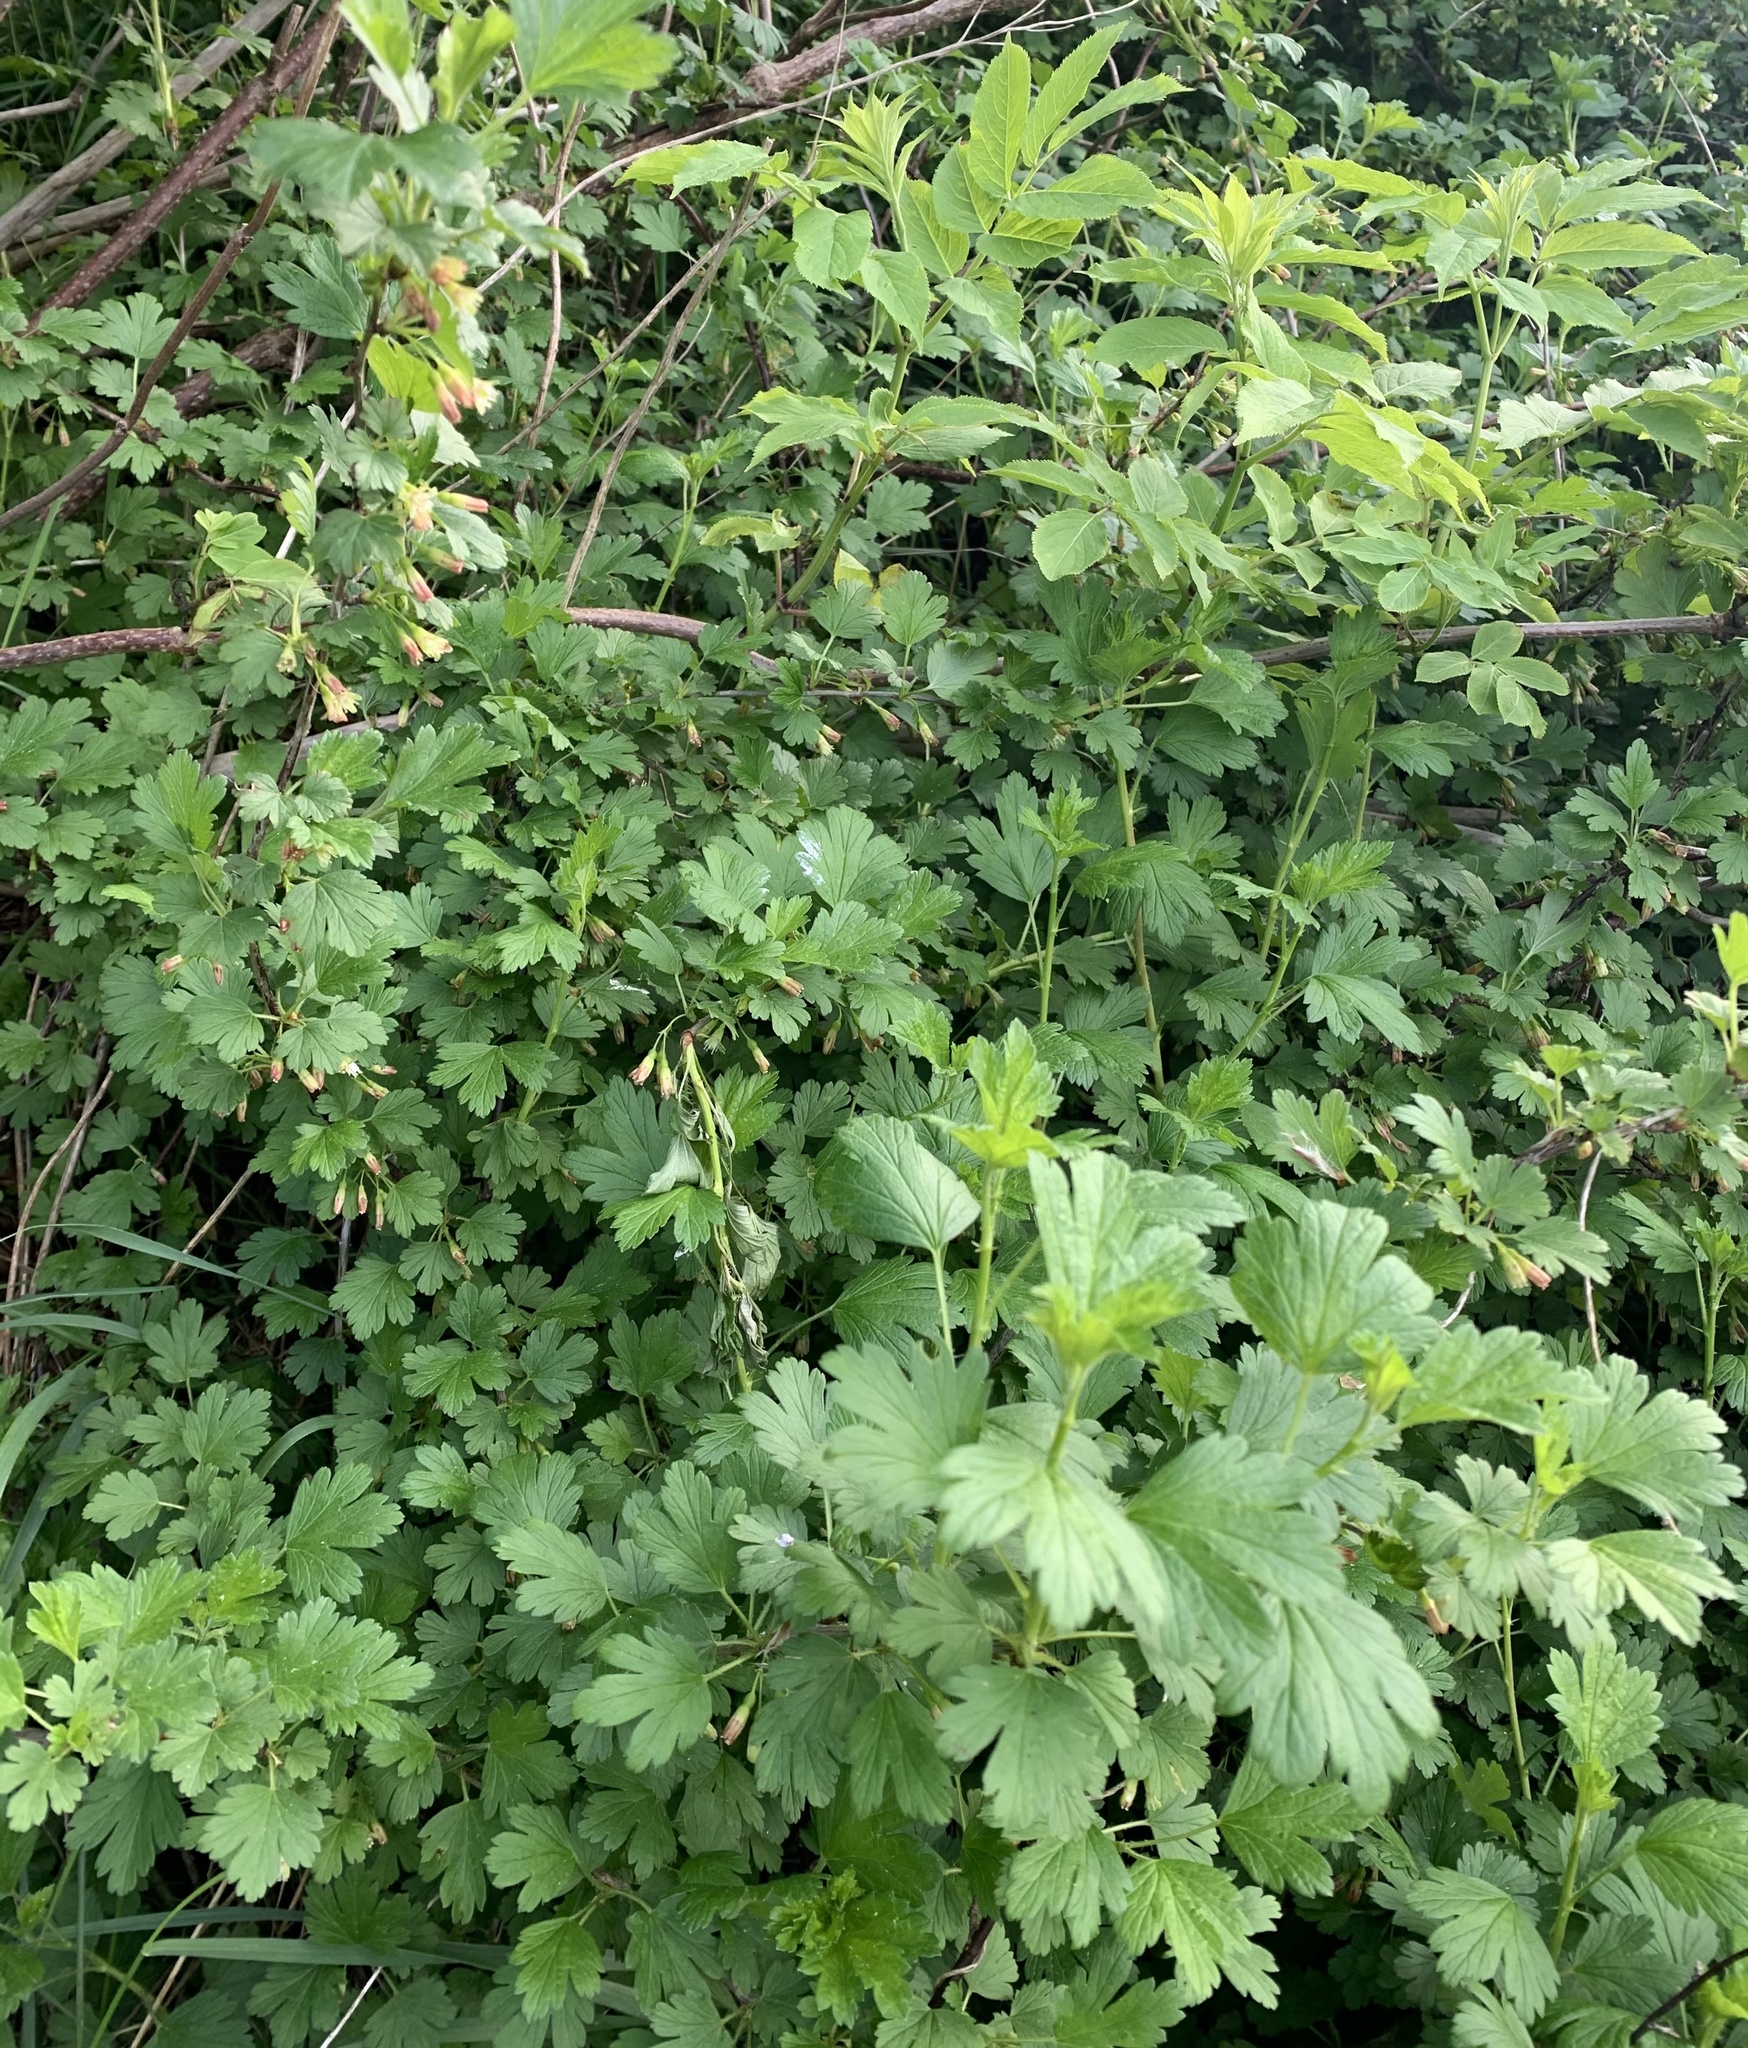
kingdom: Plantae
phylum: Tracheophyta
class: Magnoliopsida
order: Saxifragales
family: Grossulariaceae
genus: Ribes
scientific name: Ribes hirtellum
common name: Hairy gooseberry
